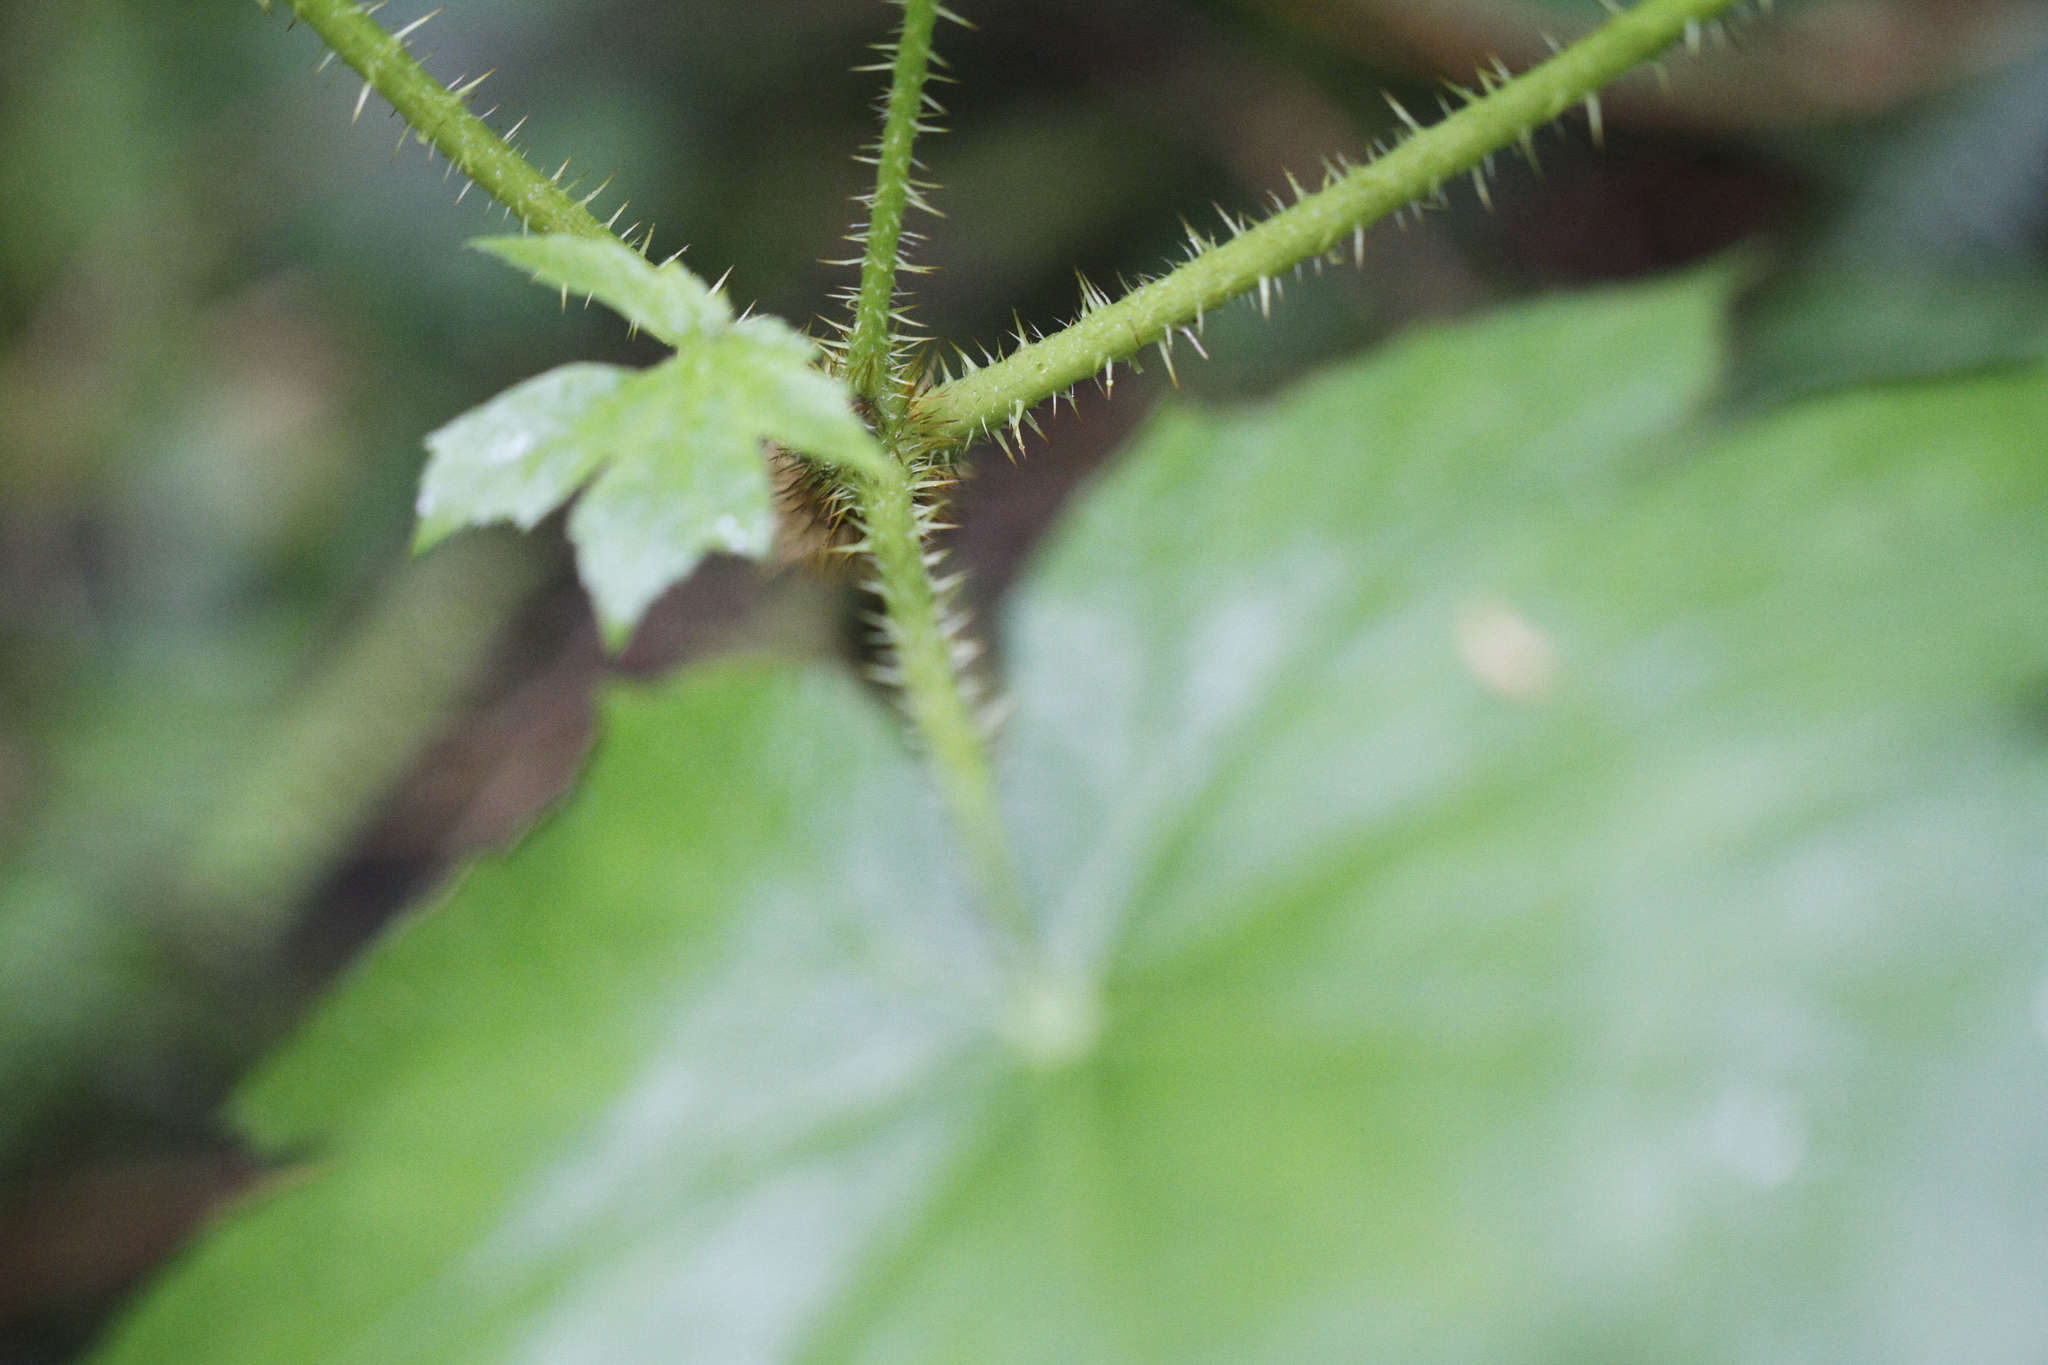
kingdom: Plantae
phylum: Tracheophyta
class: Magnoliopsida
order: Apiales
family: Araliaceae
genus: Oplopanax
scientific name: Oplopanax horridus
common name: Devil's walking-stick
